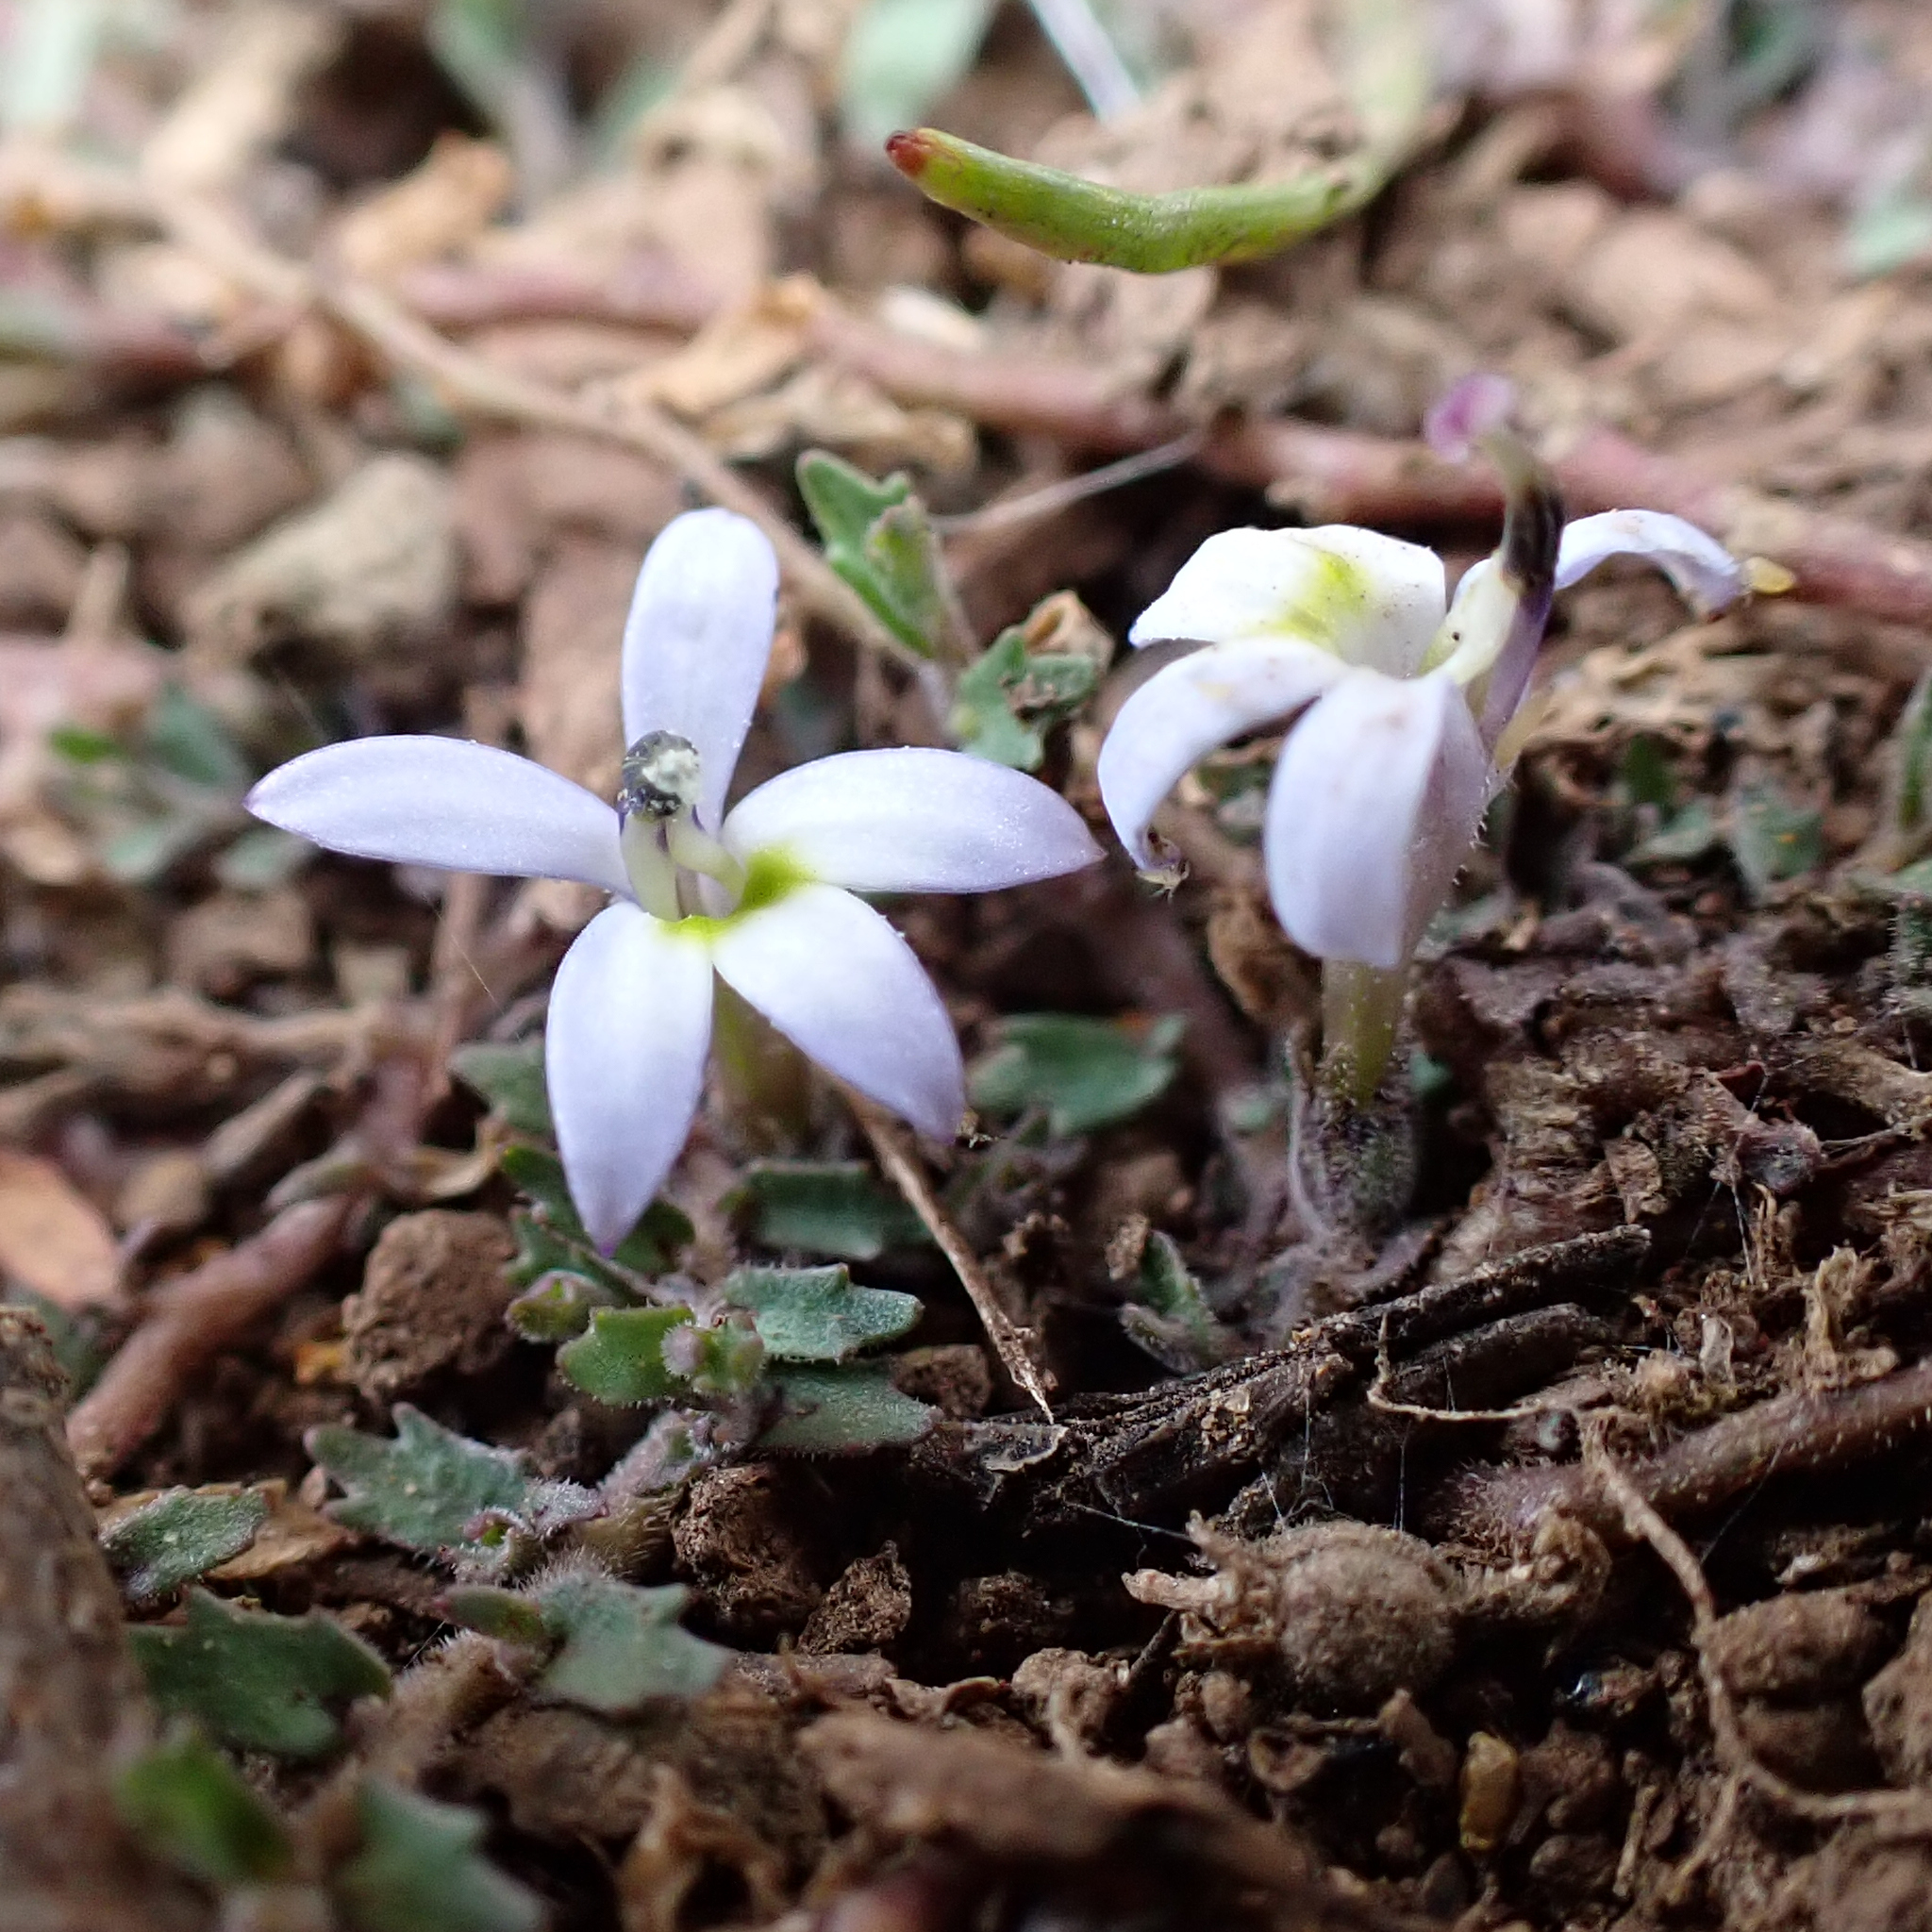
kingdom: Plantae
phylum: Tracheophyta
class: Magnoliopsida
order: Asterales
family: Campanulaceae
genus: Lobelia
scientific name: Lobelia pedunculata
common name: Matted pratia
